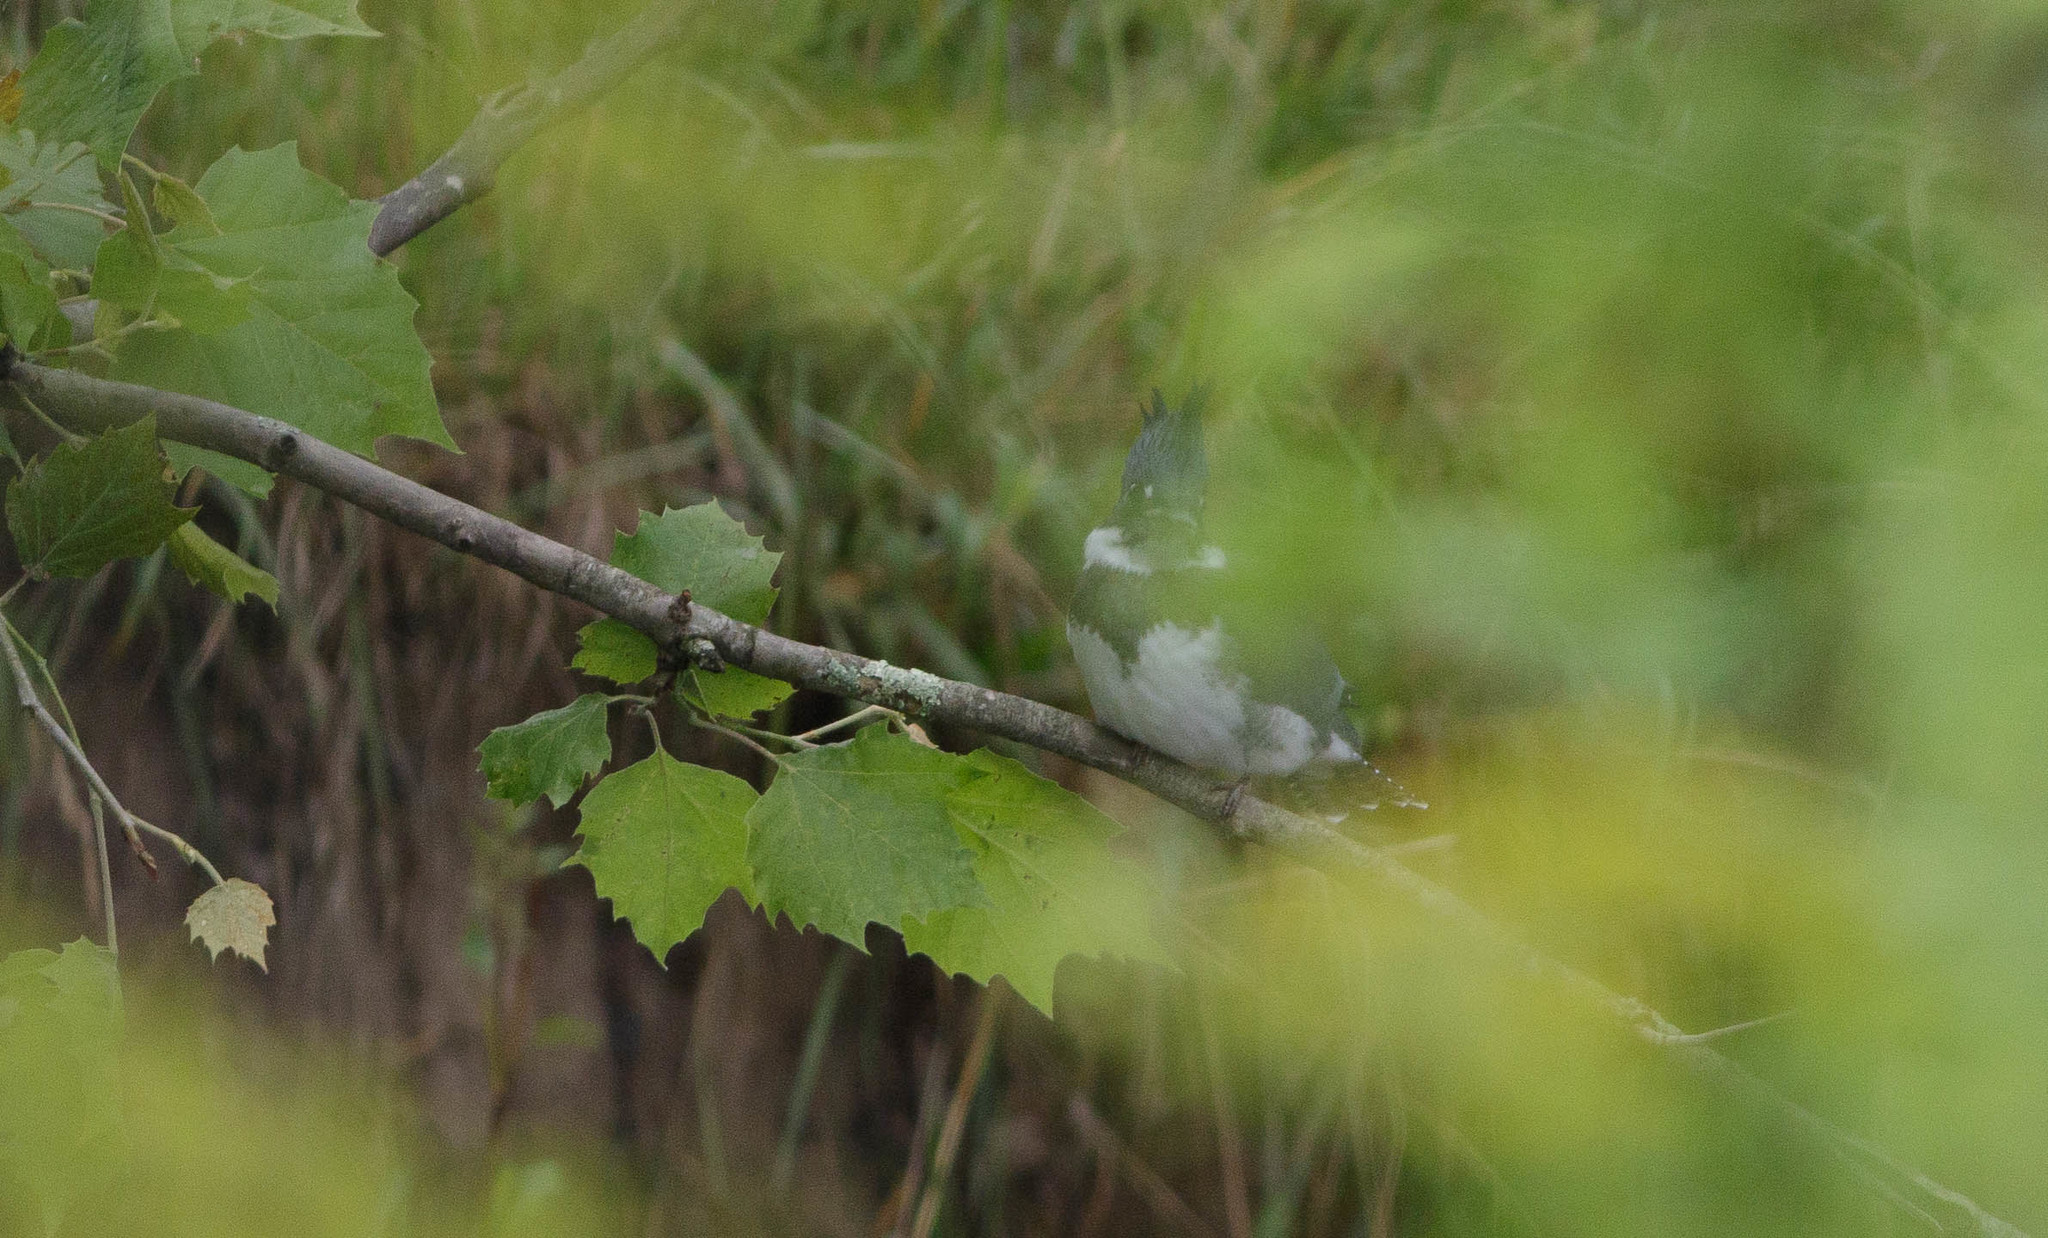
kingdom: Animalia
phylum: Chordata
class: Aves
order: Coraciiformes
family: Alcedinidae
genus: Megaceryle
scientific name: Megaceryle alcyon
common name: Belted kingfisher
